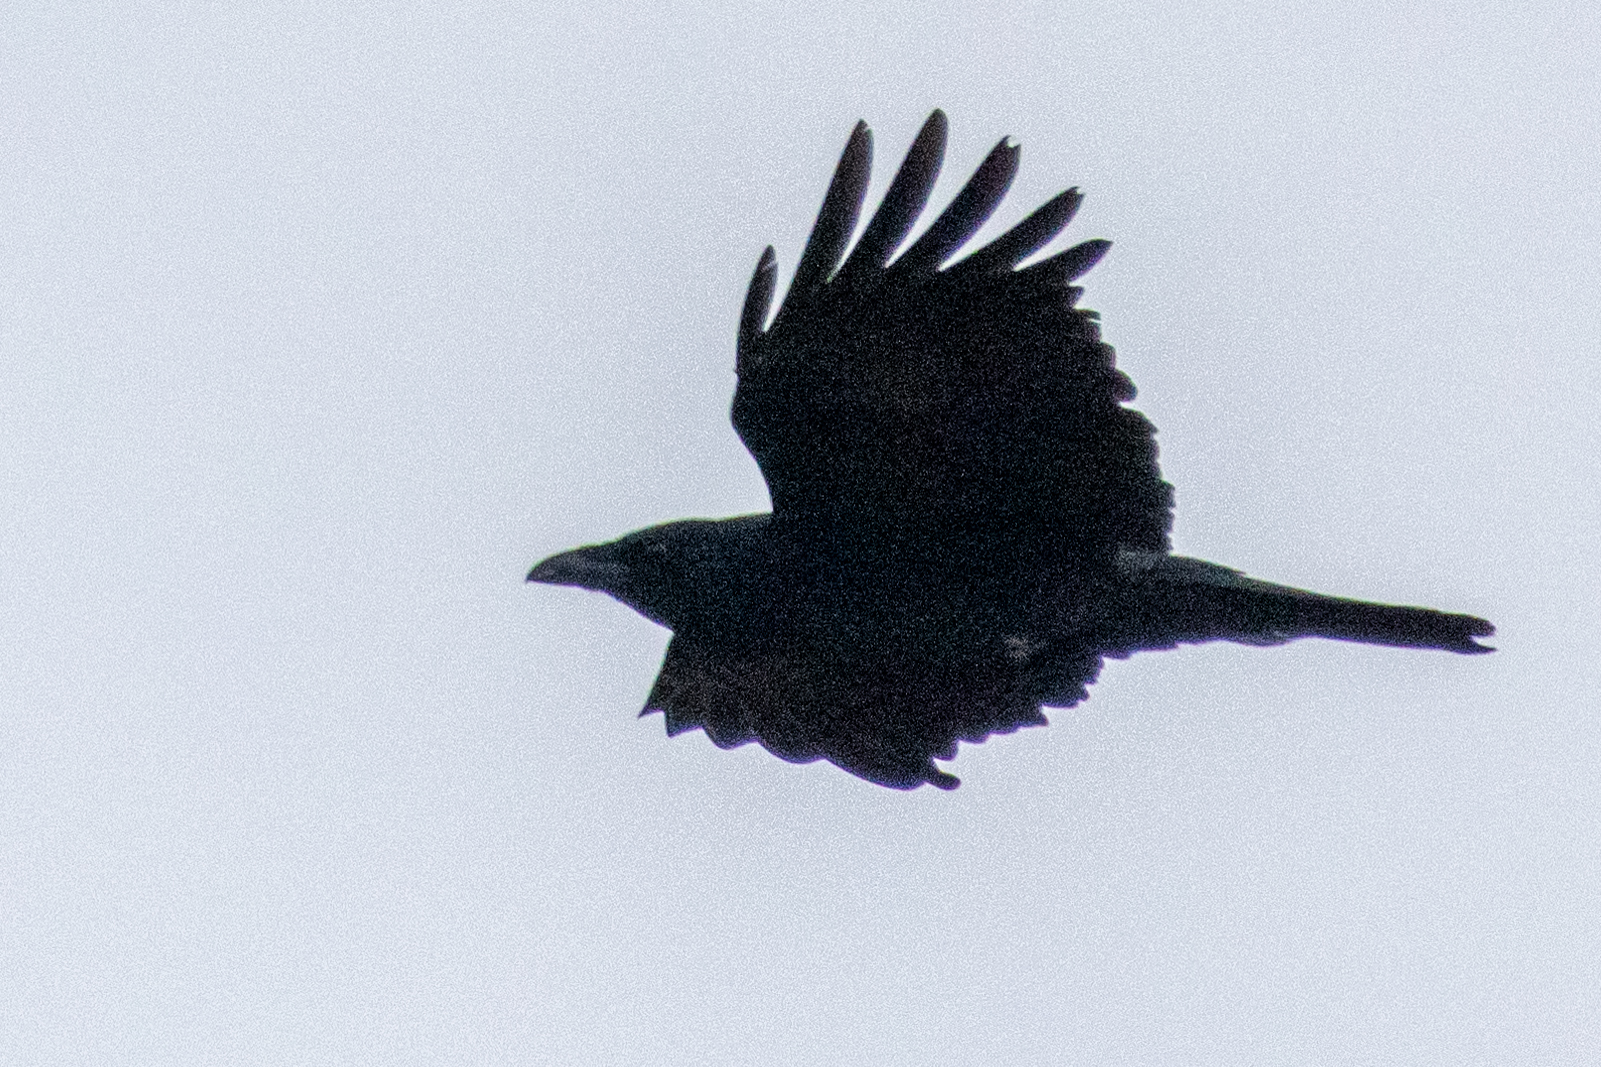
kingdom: Animalia
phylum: Chordata
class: Aves
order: Passeriformes
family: Corvidae
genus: Corvus
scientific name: Corvus corone
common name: Carrion crow
